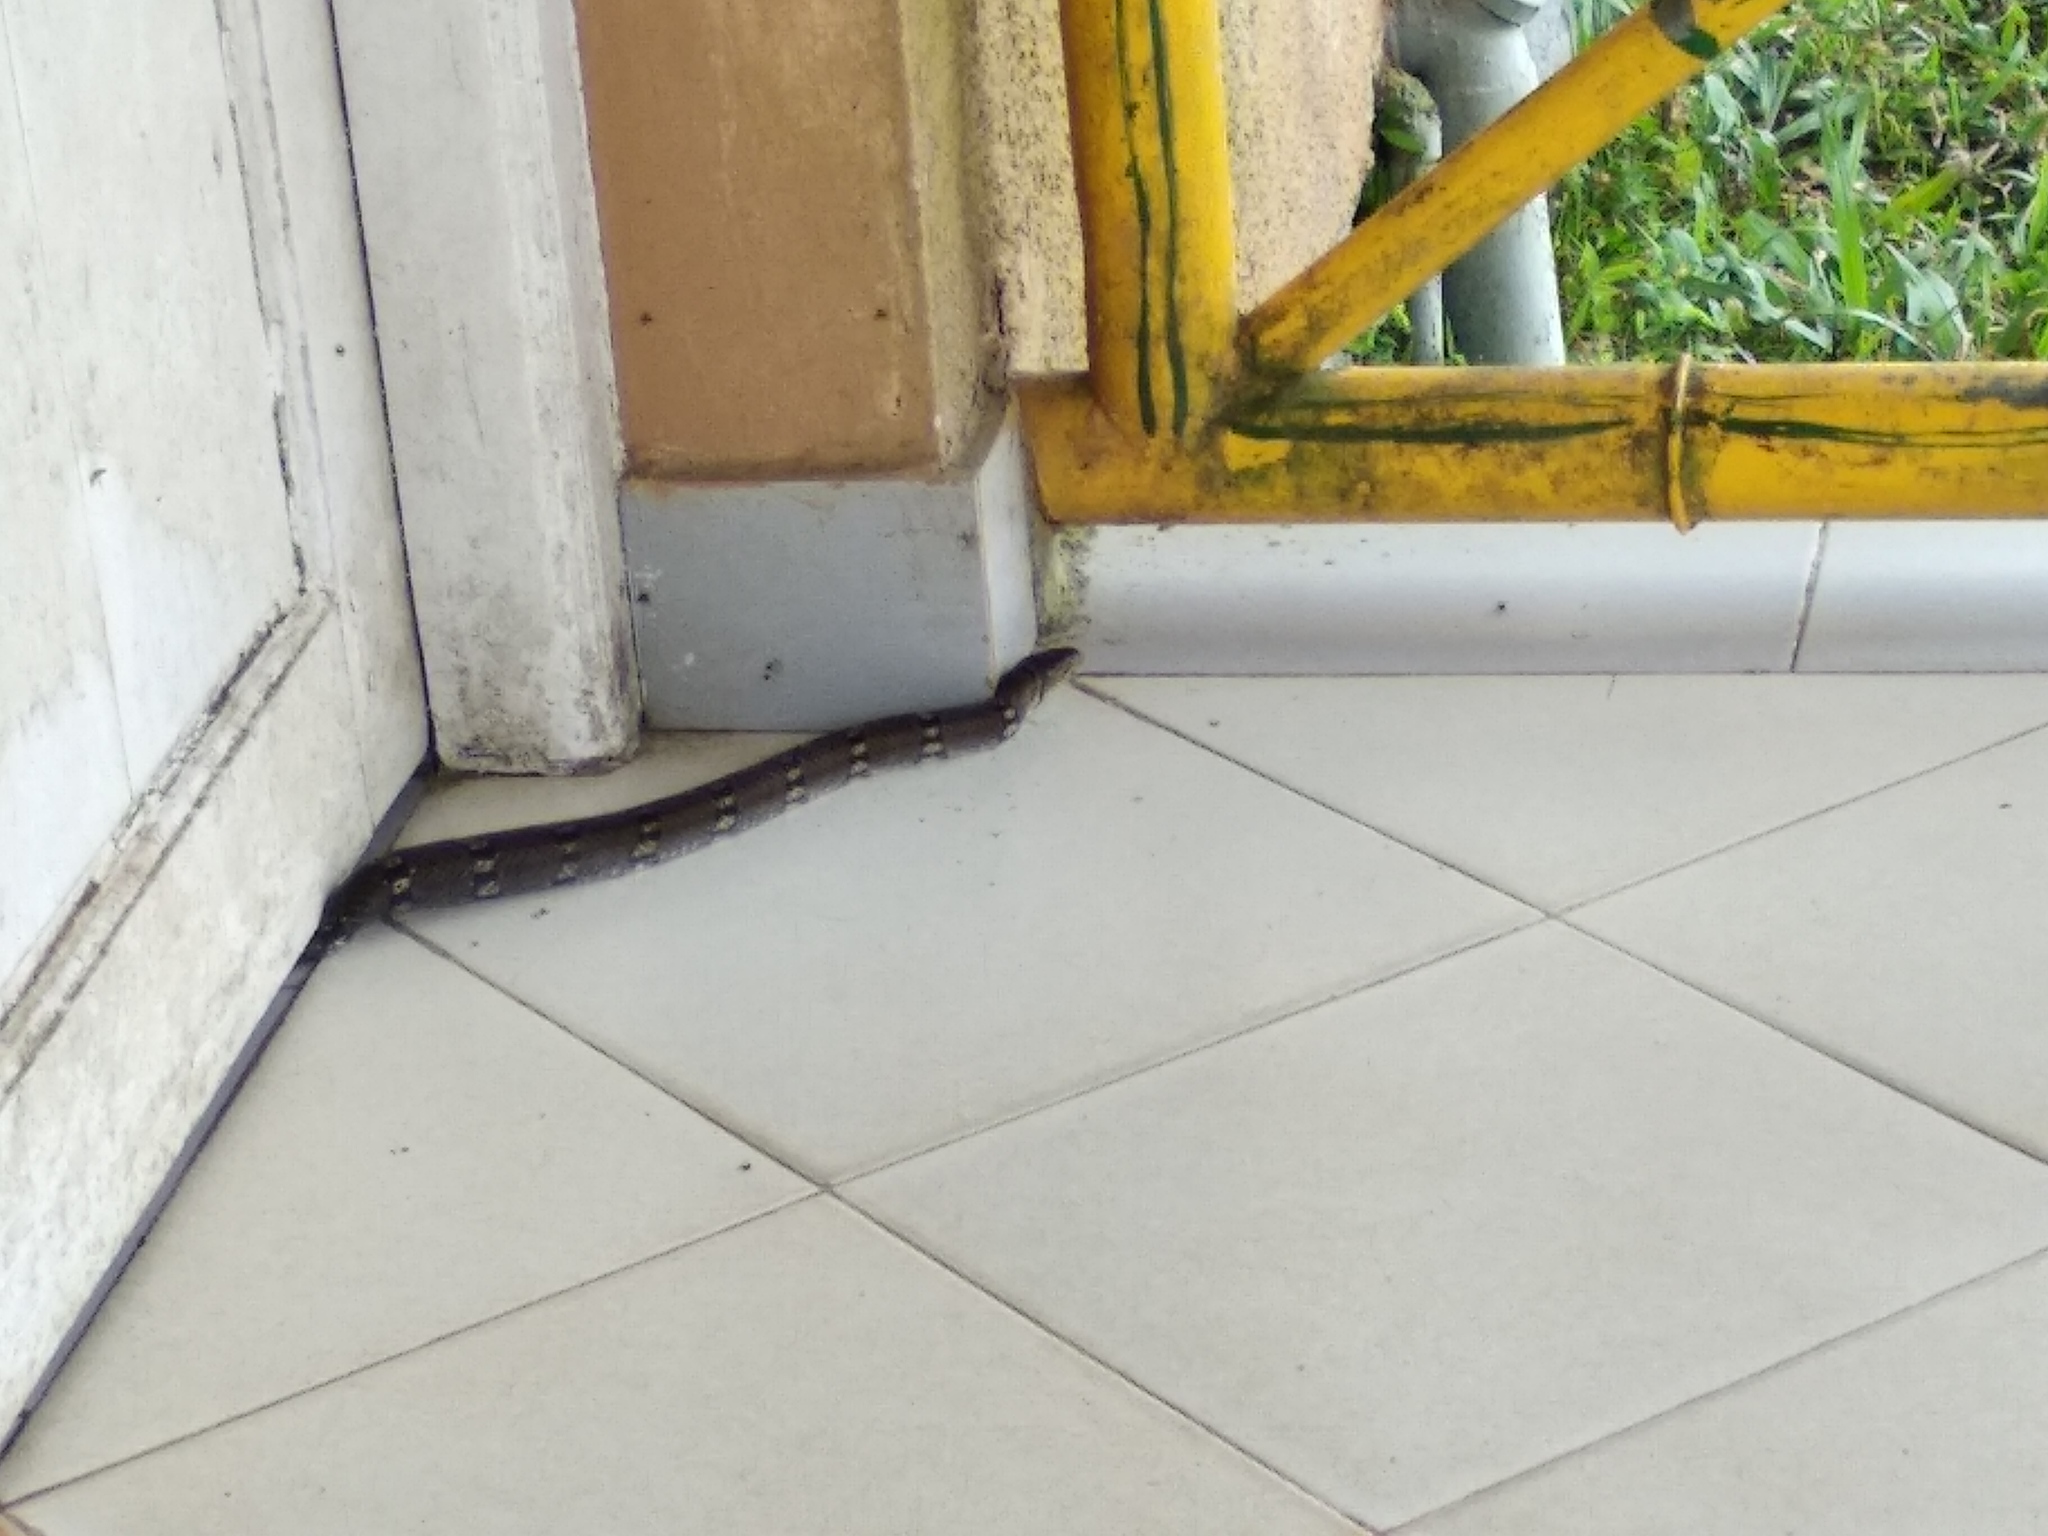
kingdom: Animalia
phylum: Chordata
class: Squamata
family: Colubridae
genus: Coelognathus
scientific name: Coelognathus helena
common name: Trinket snake
